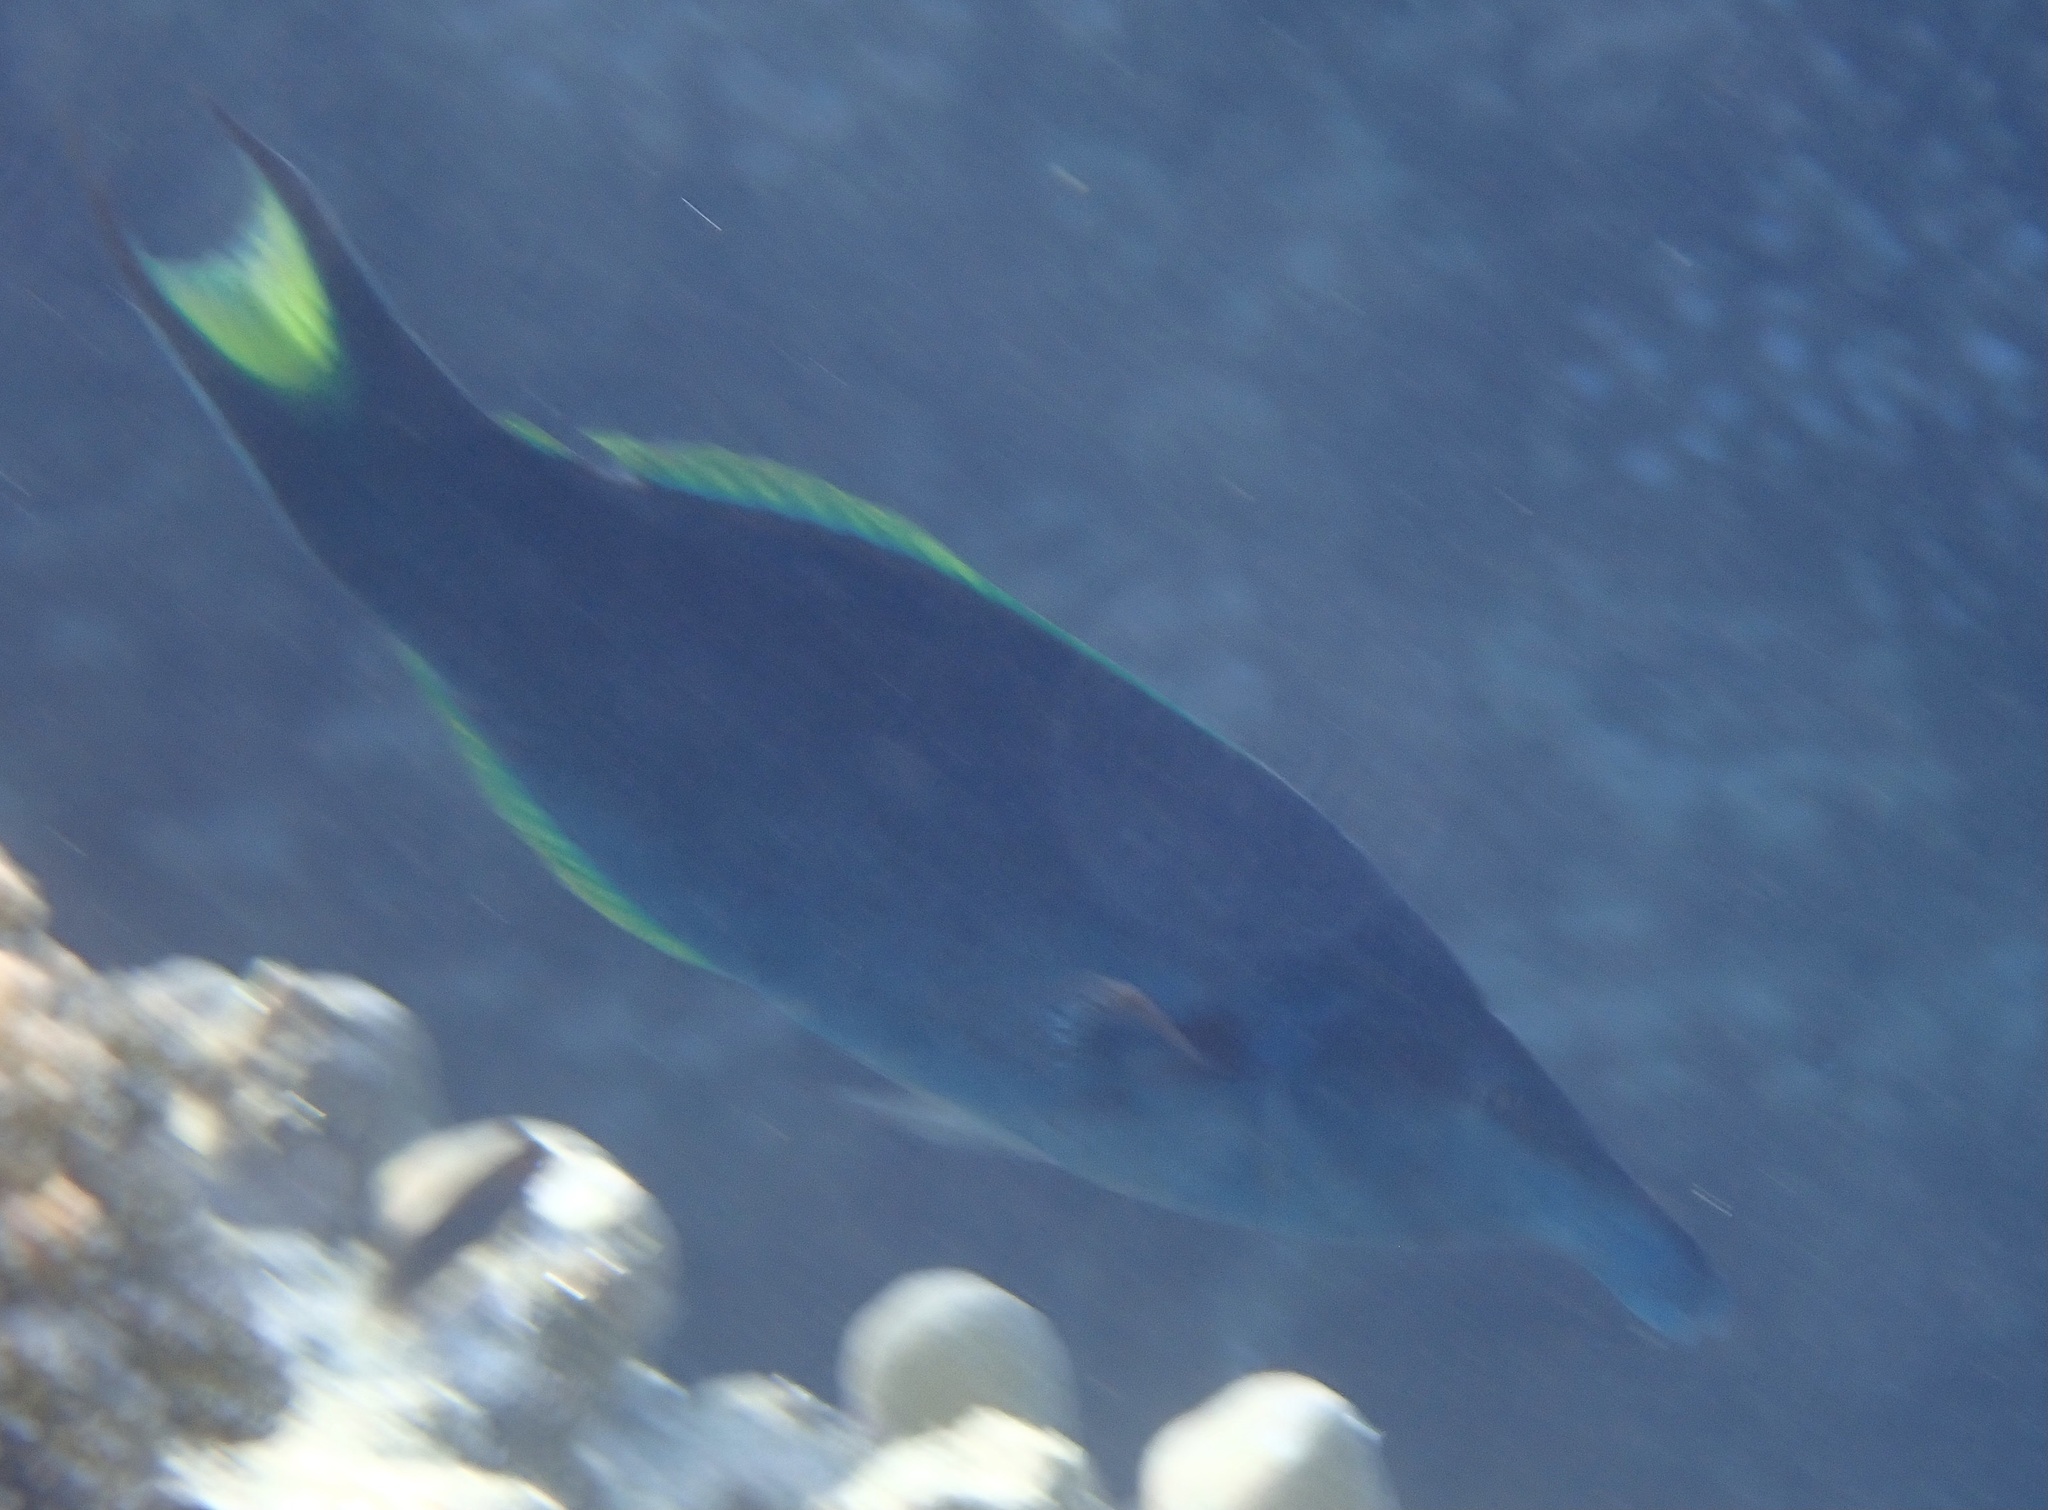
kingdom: Animalia
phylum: Chordata
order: Perciformes
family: Labridae
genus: Gomphosus
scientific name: Gomphosus klunzingeri
